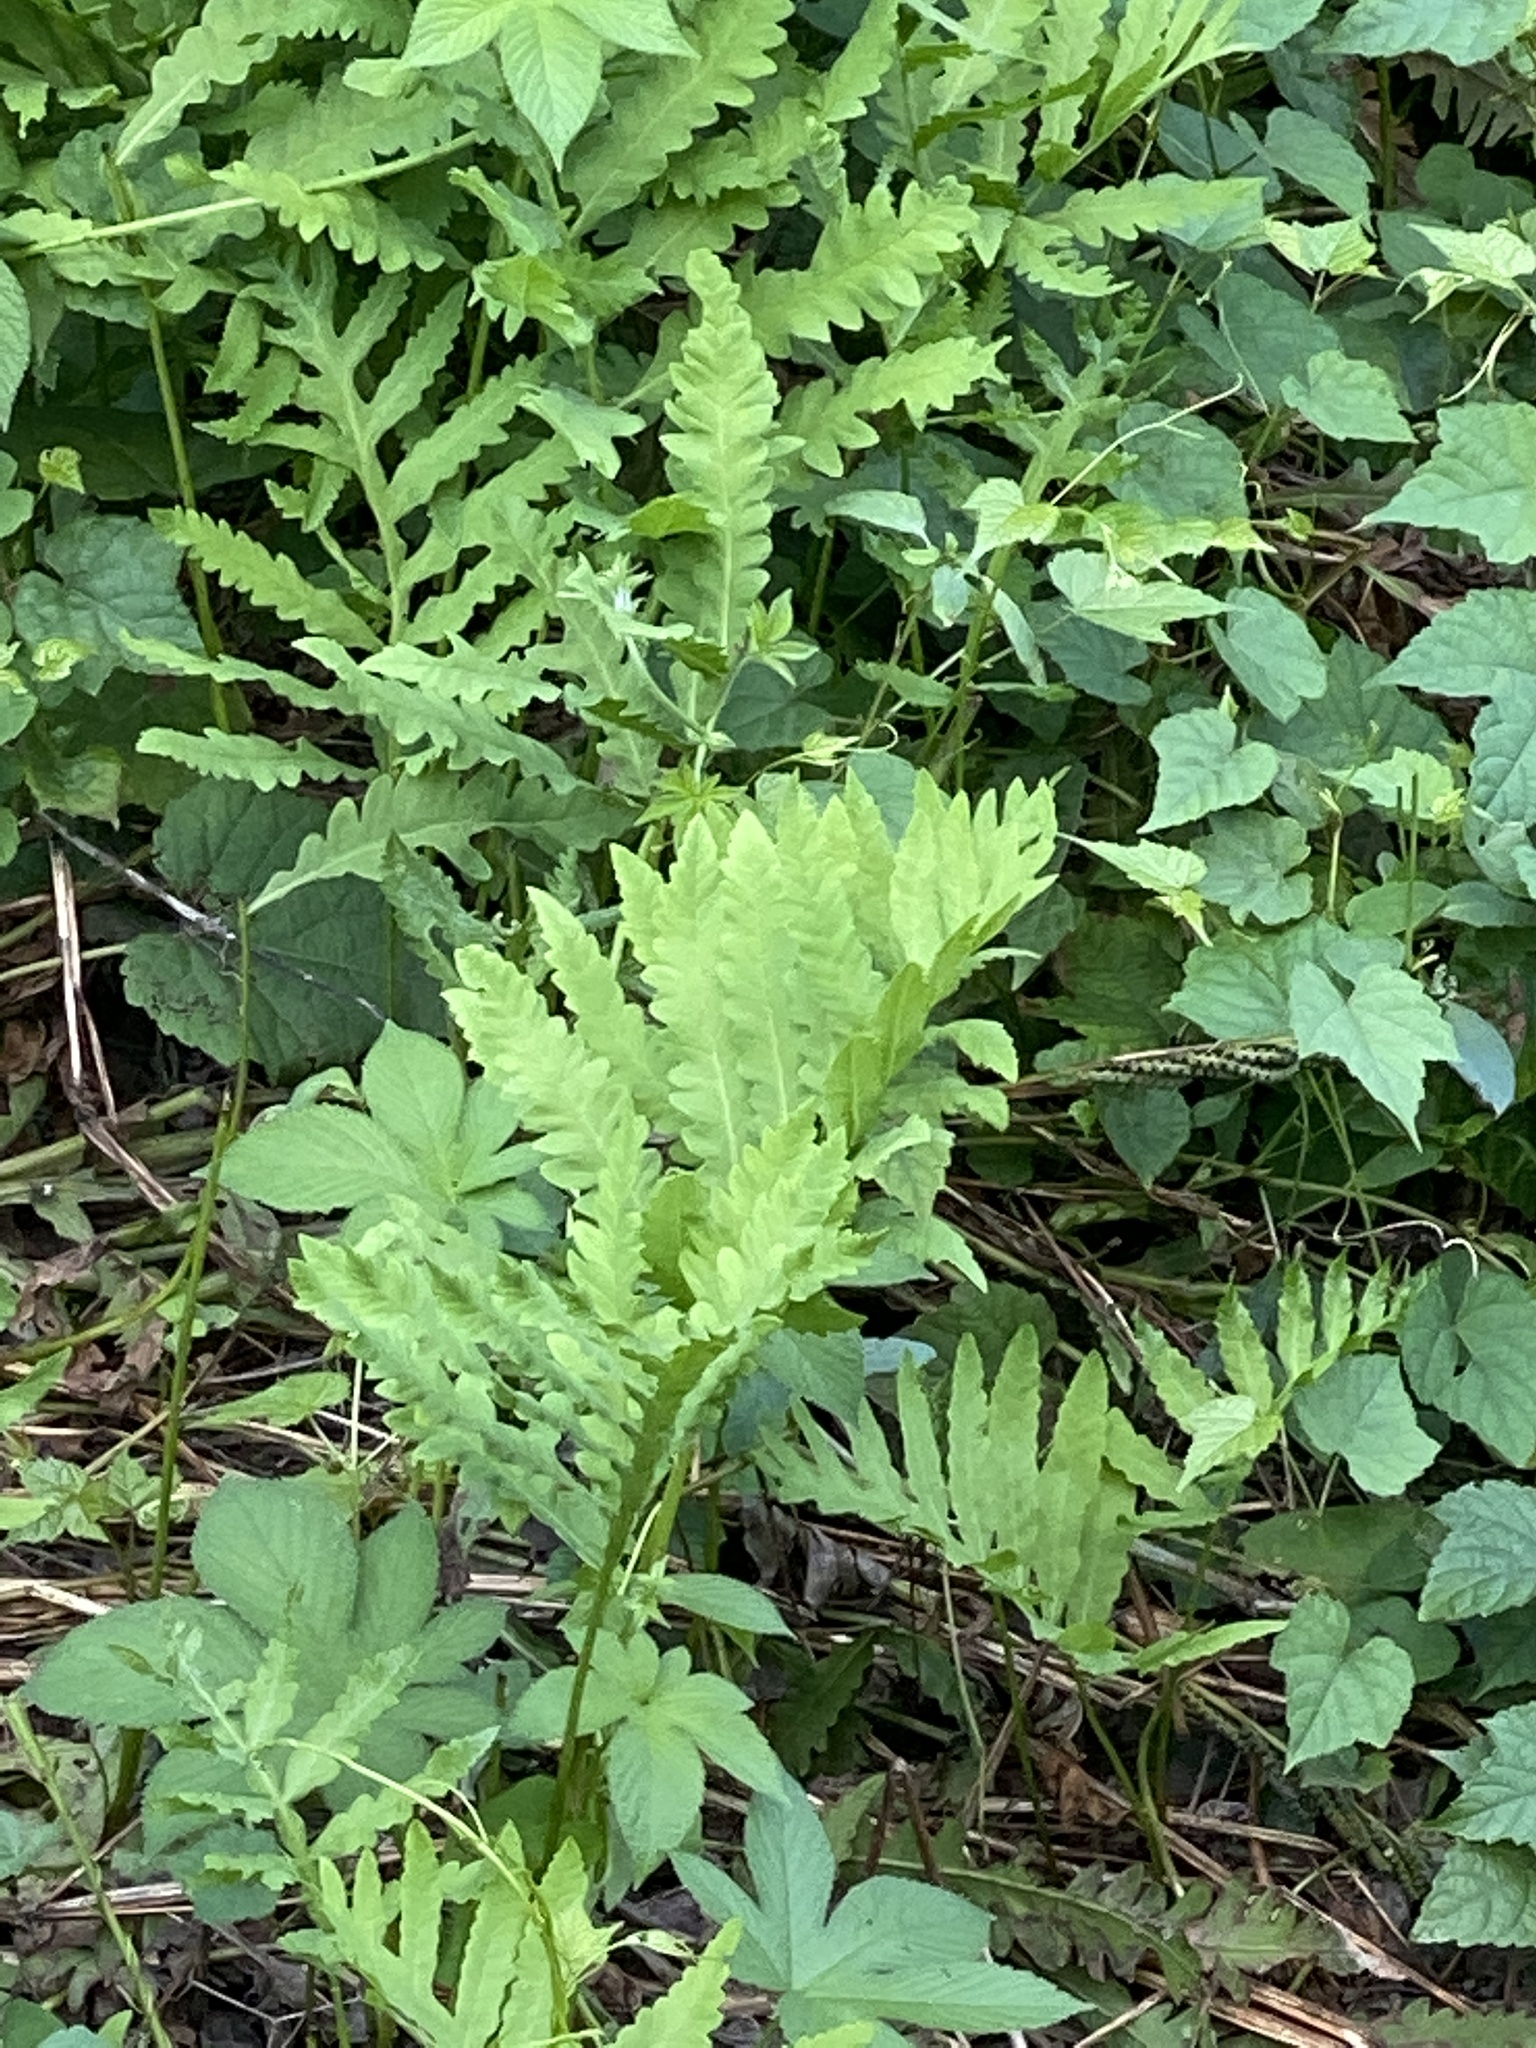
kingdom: Plantae
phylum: Tracheophyta
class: Polypodiopsida
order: Polypodiales
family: Onocleaceae
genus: Onoclea
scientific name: Onoclea sensibilis
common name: Sensitive fern
